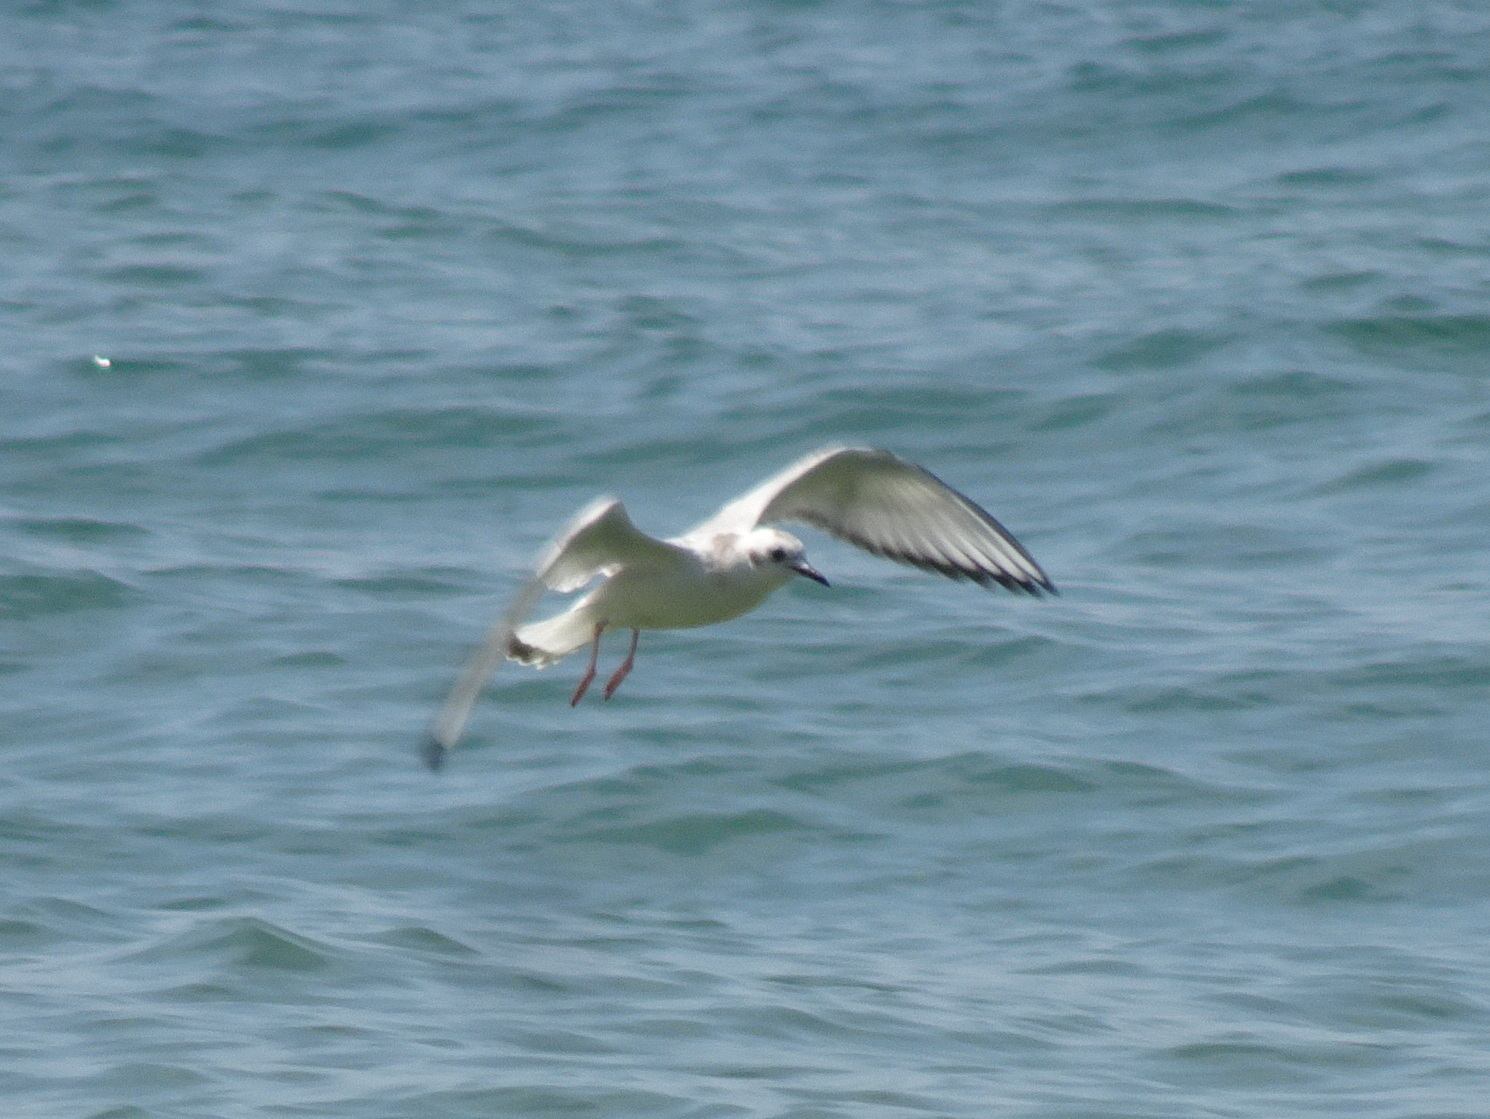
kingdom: Animalia
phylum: Chordata
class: Aves
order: Charadriiformes
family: Laridae
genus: Chroicocephalus
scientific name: Chroicocephalus philadelphia
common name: Bonaparte's gull
